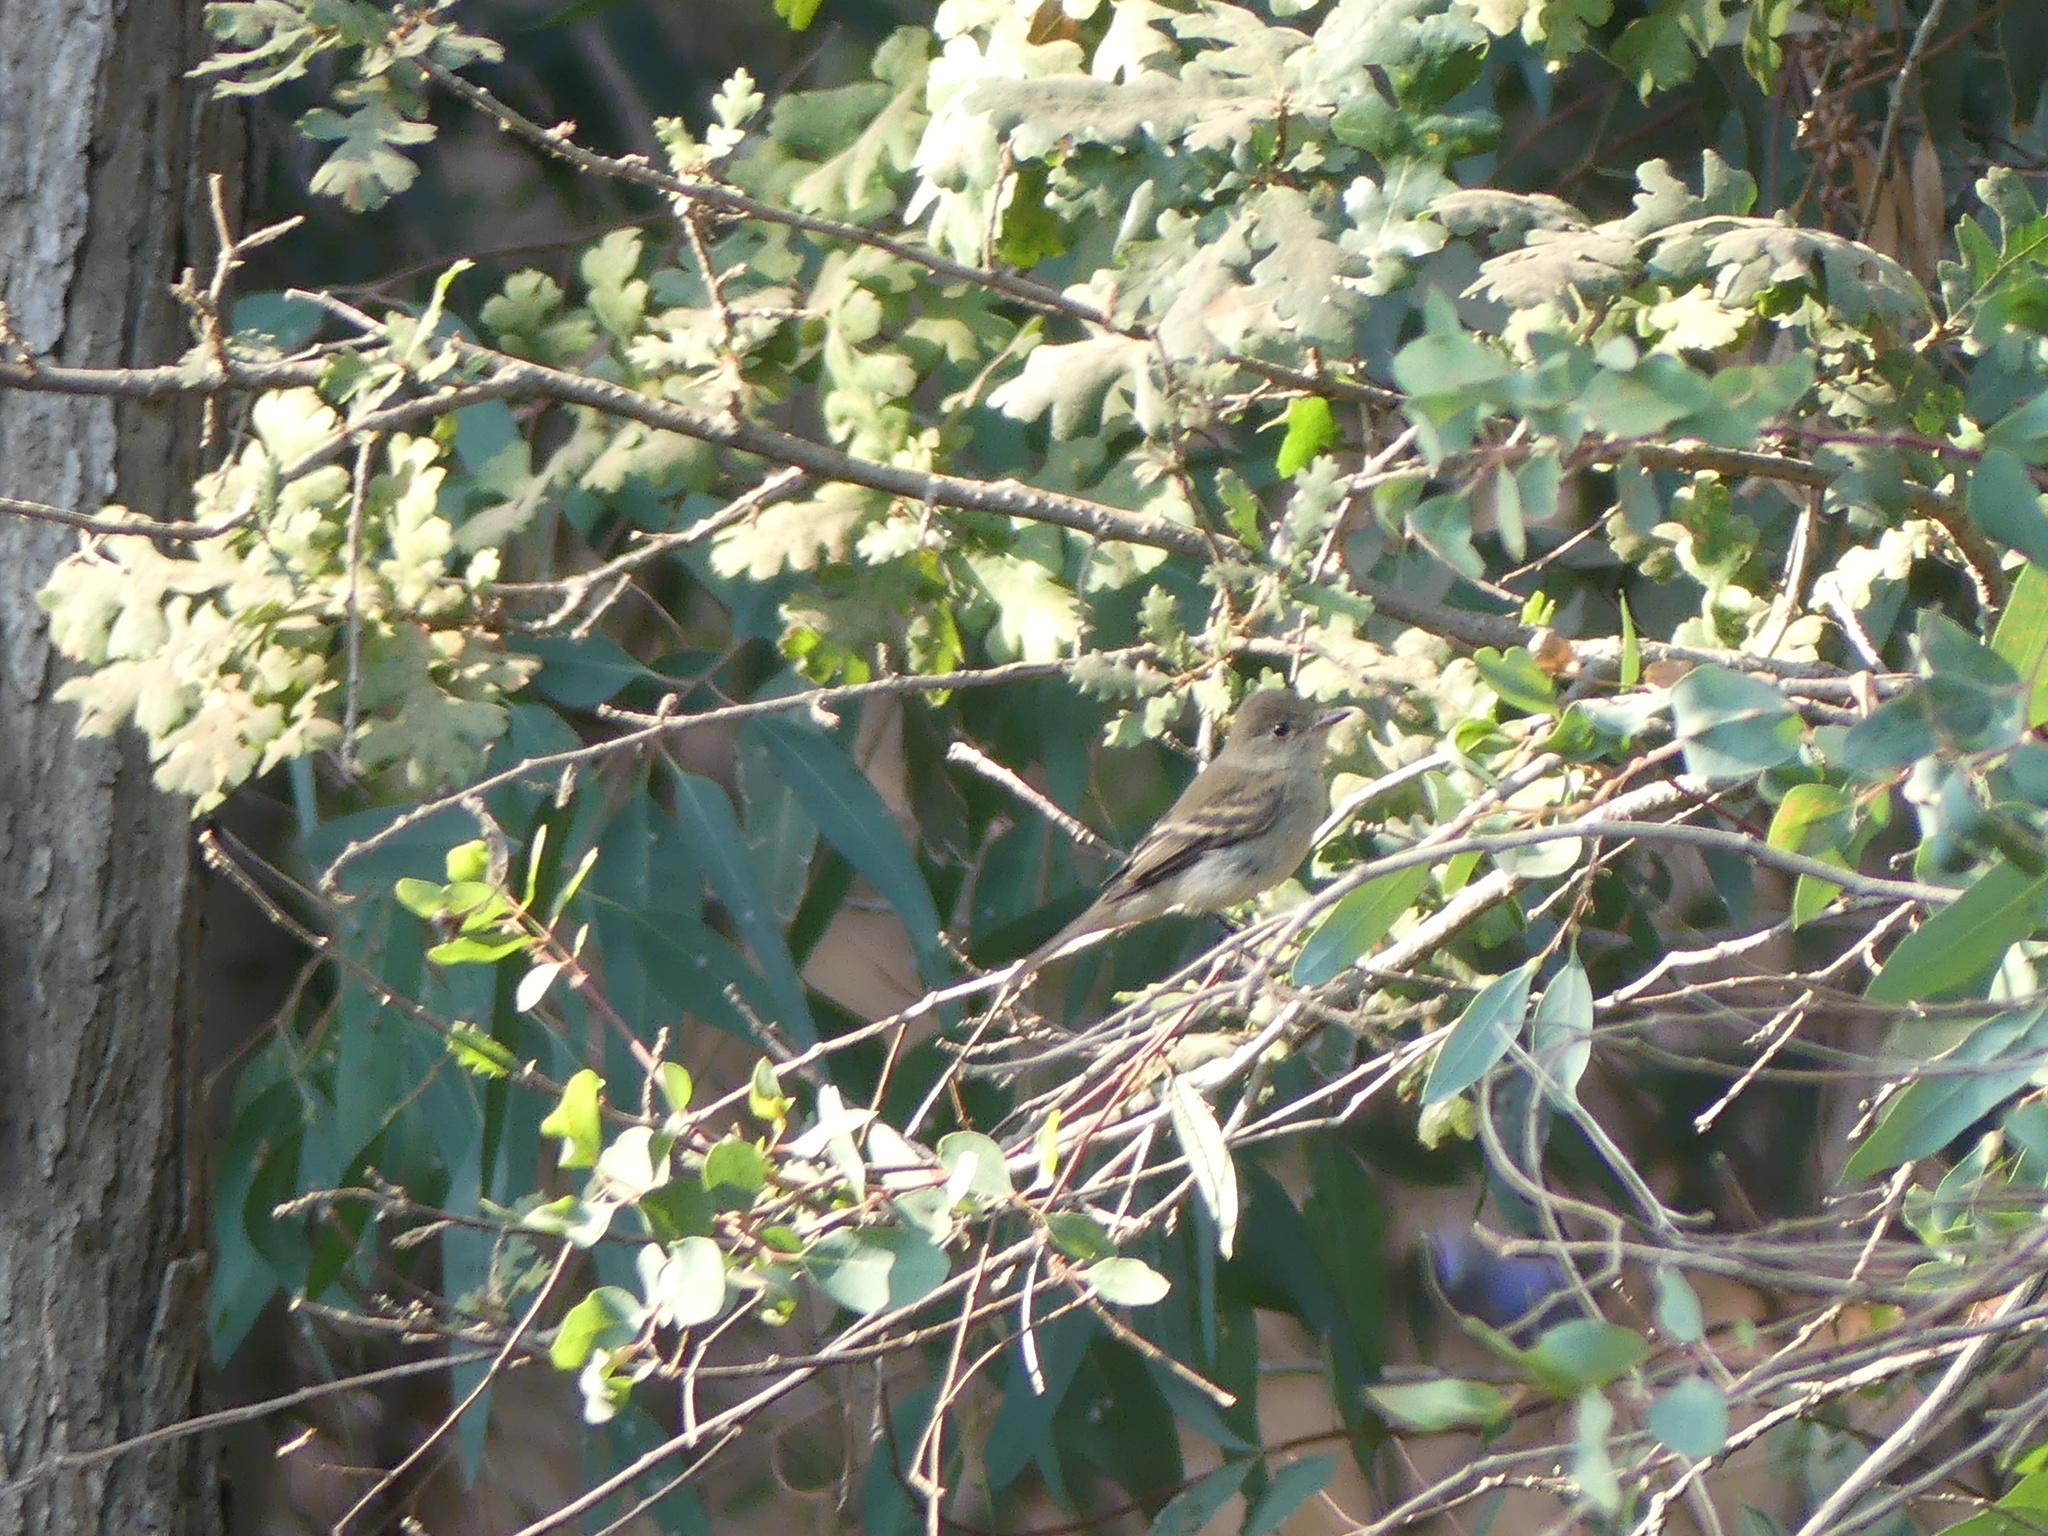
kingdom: Animalia
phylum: Chordata
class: Aves
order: Passeriformes
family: Tyrannidae
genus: Empidonax
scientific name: Empidonax traillii
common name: Willow flycatcher
